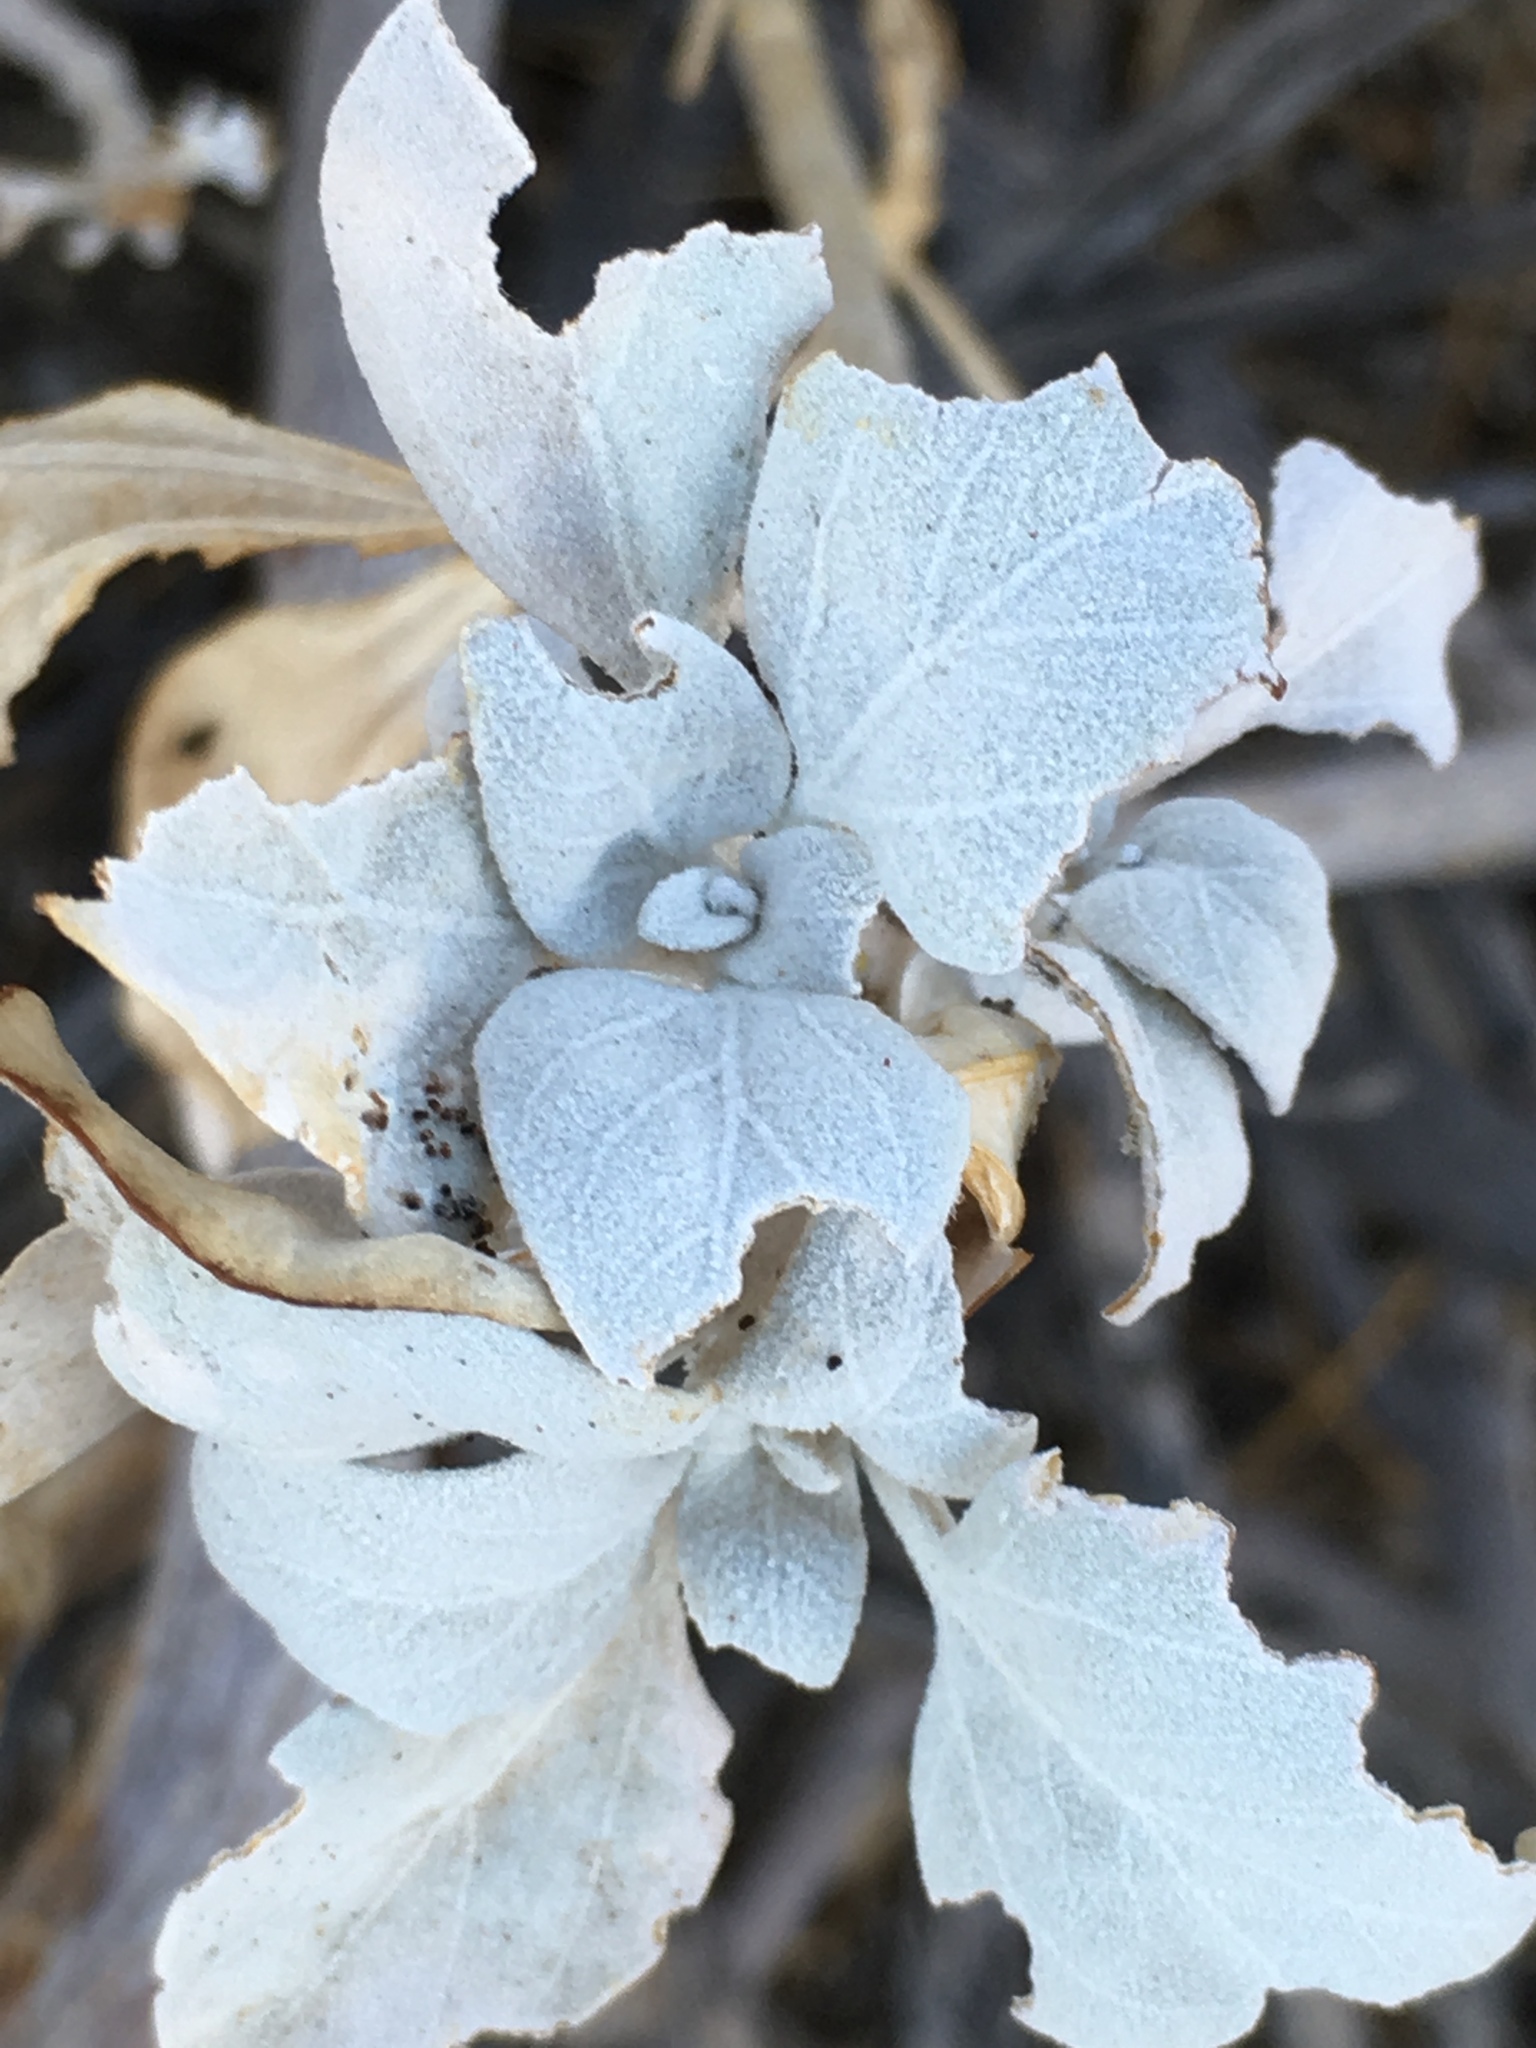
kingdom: Plantae
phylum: Tracheophyta
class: Magnoliopsida
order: Asterales
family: Asteraceae
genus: Encelia
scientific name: Encelia farinosa
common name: Brittlebush
